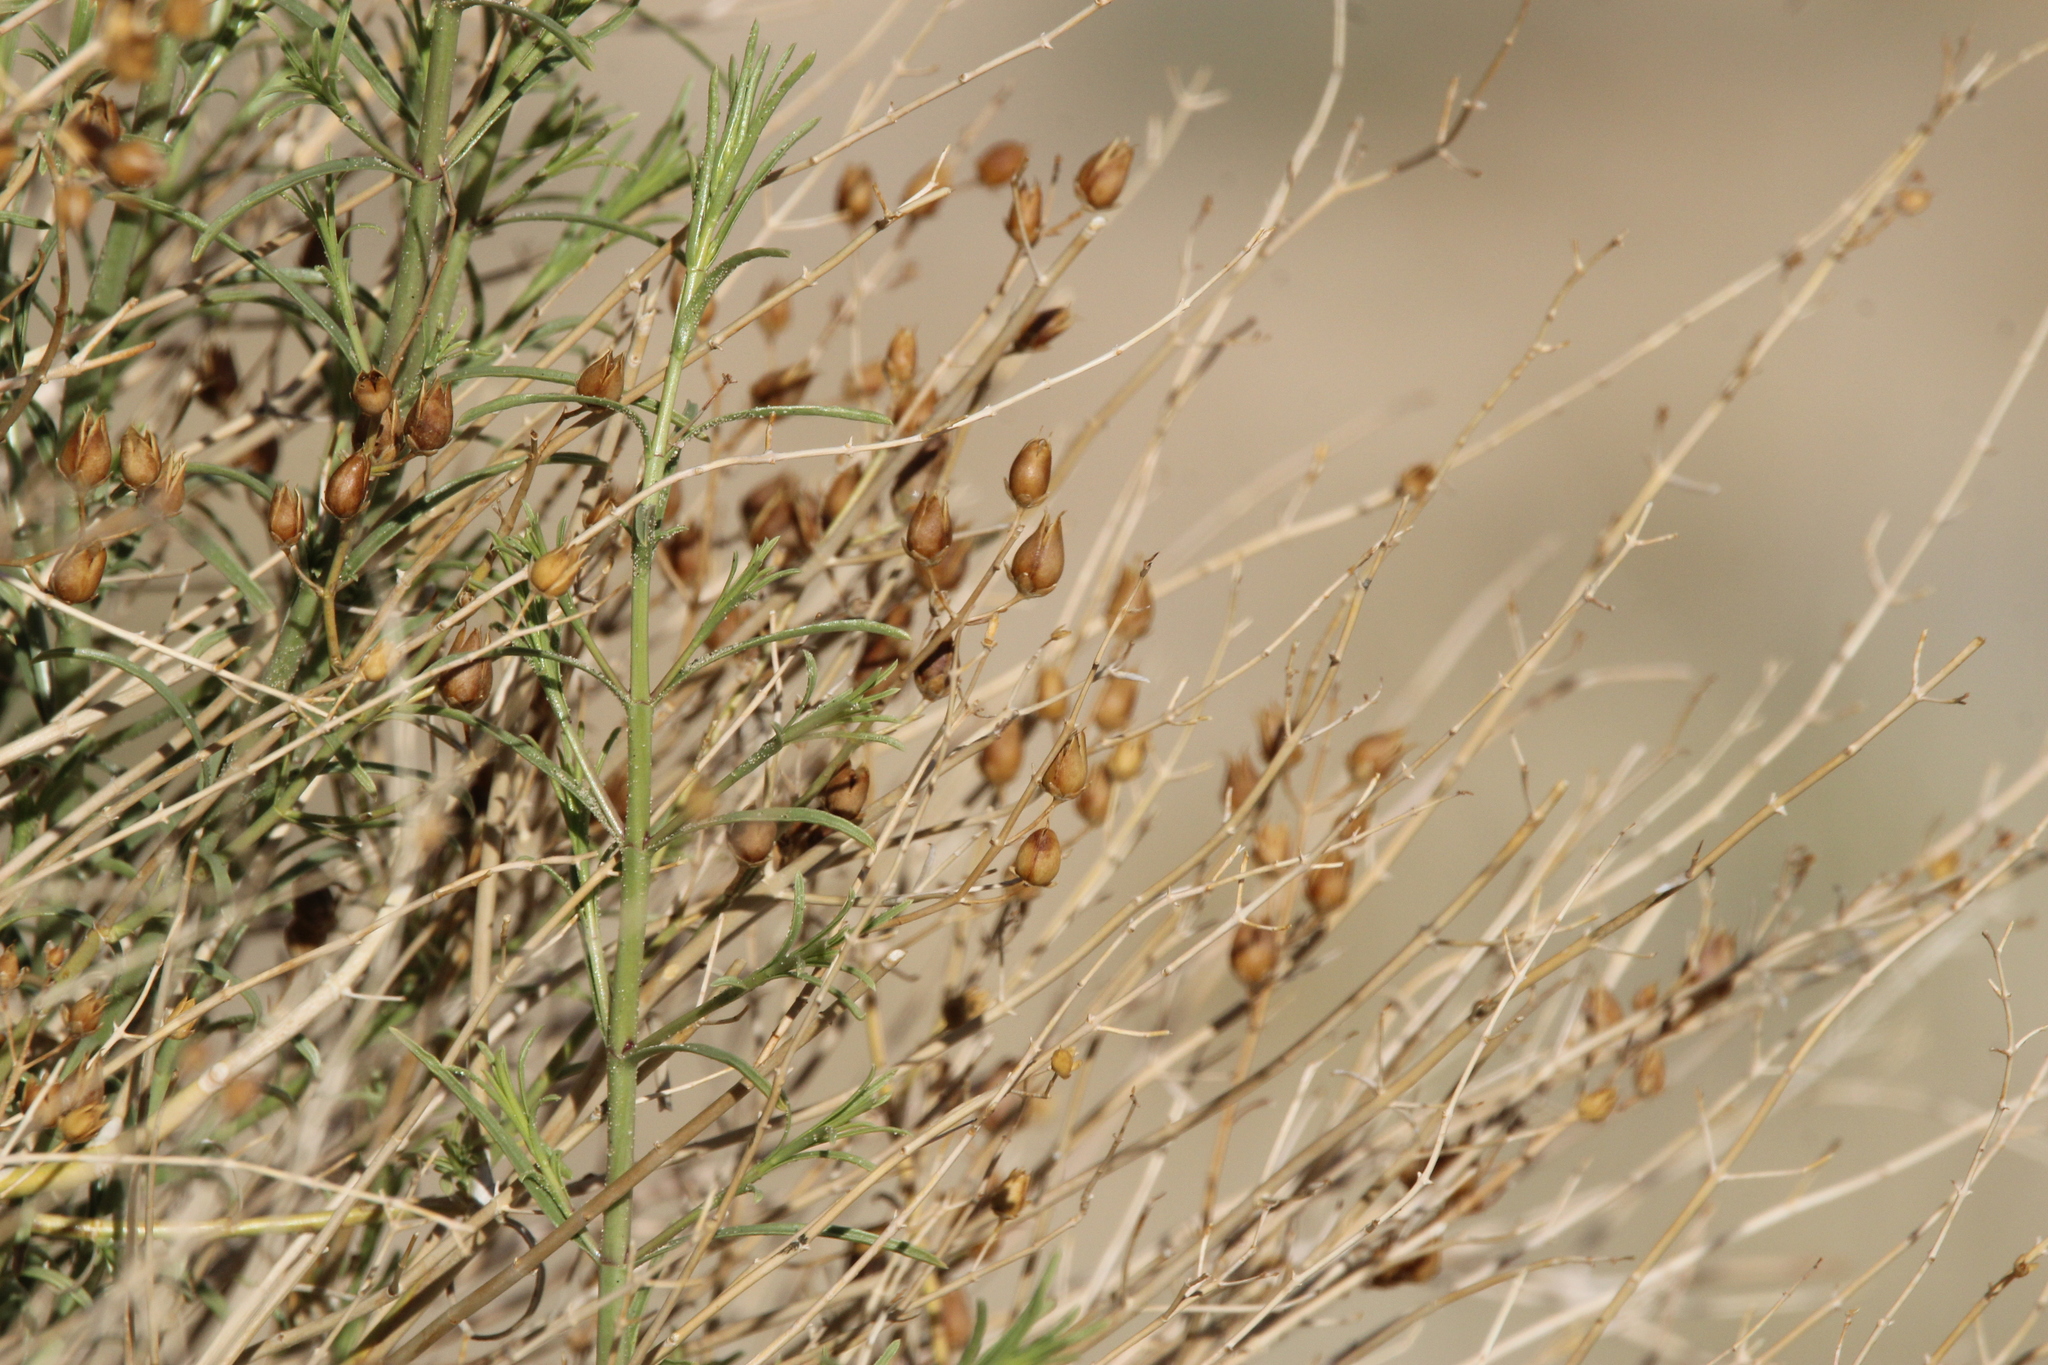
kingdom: Plantae
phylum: Tracheophyta
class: Magnoliopsida
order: Lamiales
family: Plantaginaceae
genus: Penstemon
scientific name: Penstemon thurberi
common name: Thurber's beardtongue
